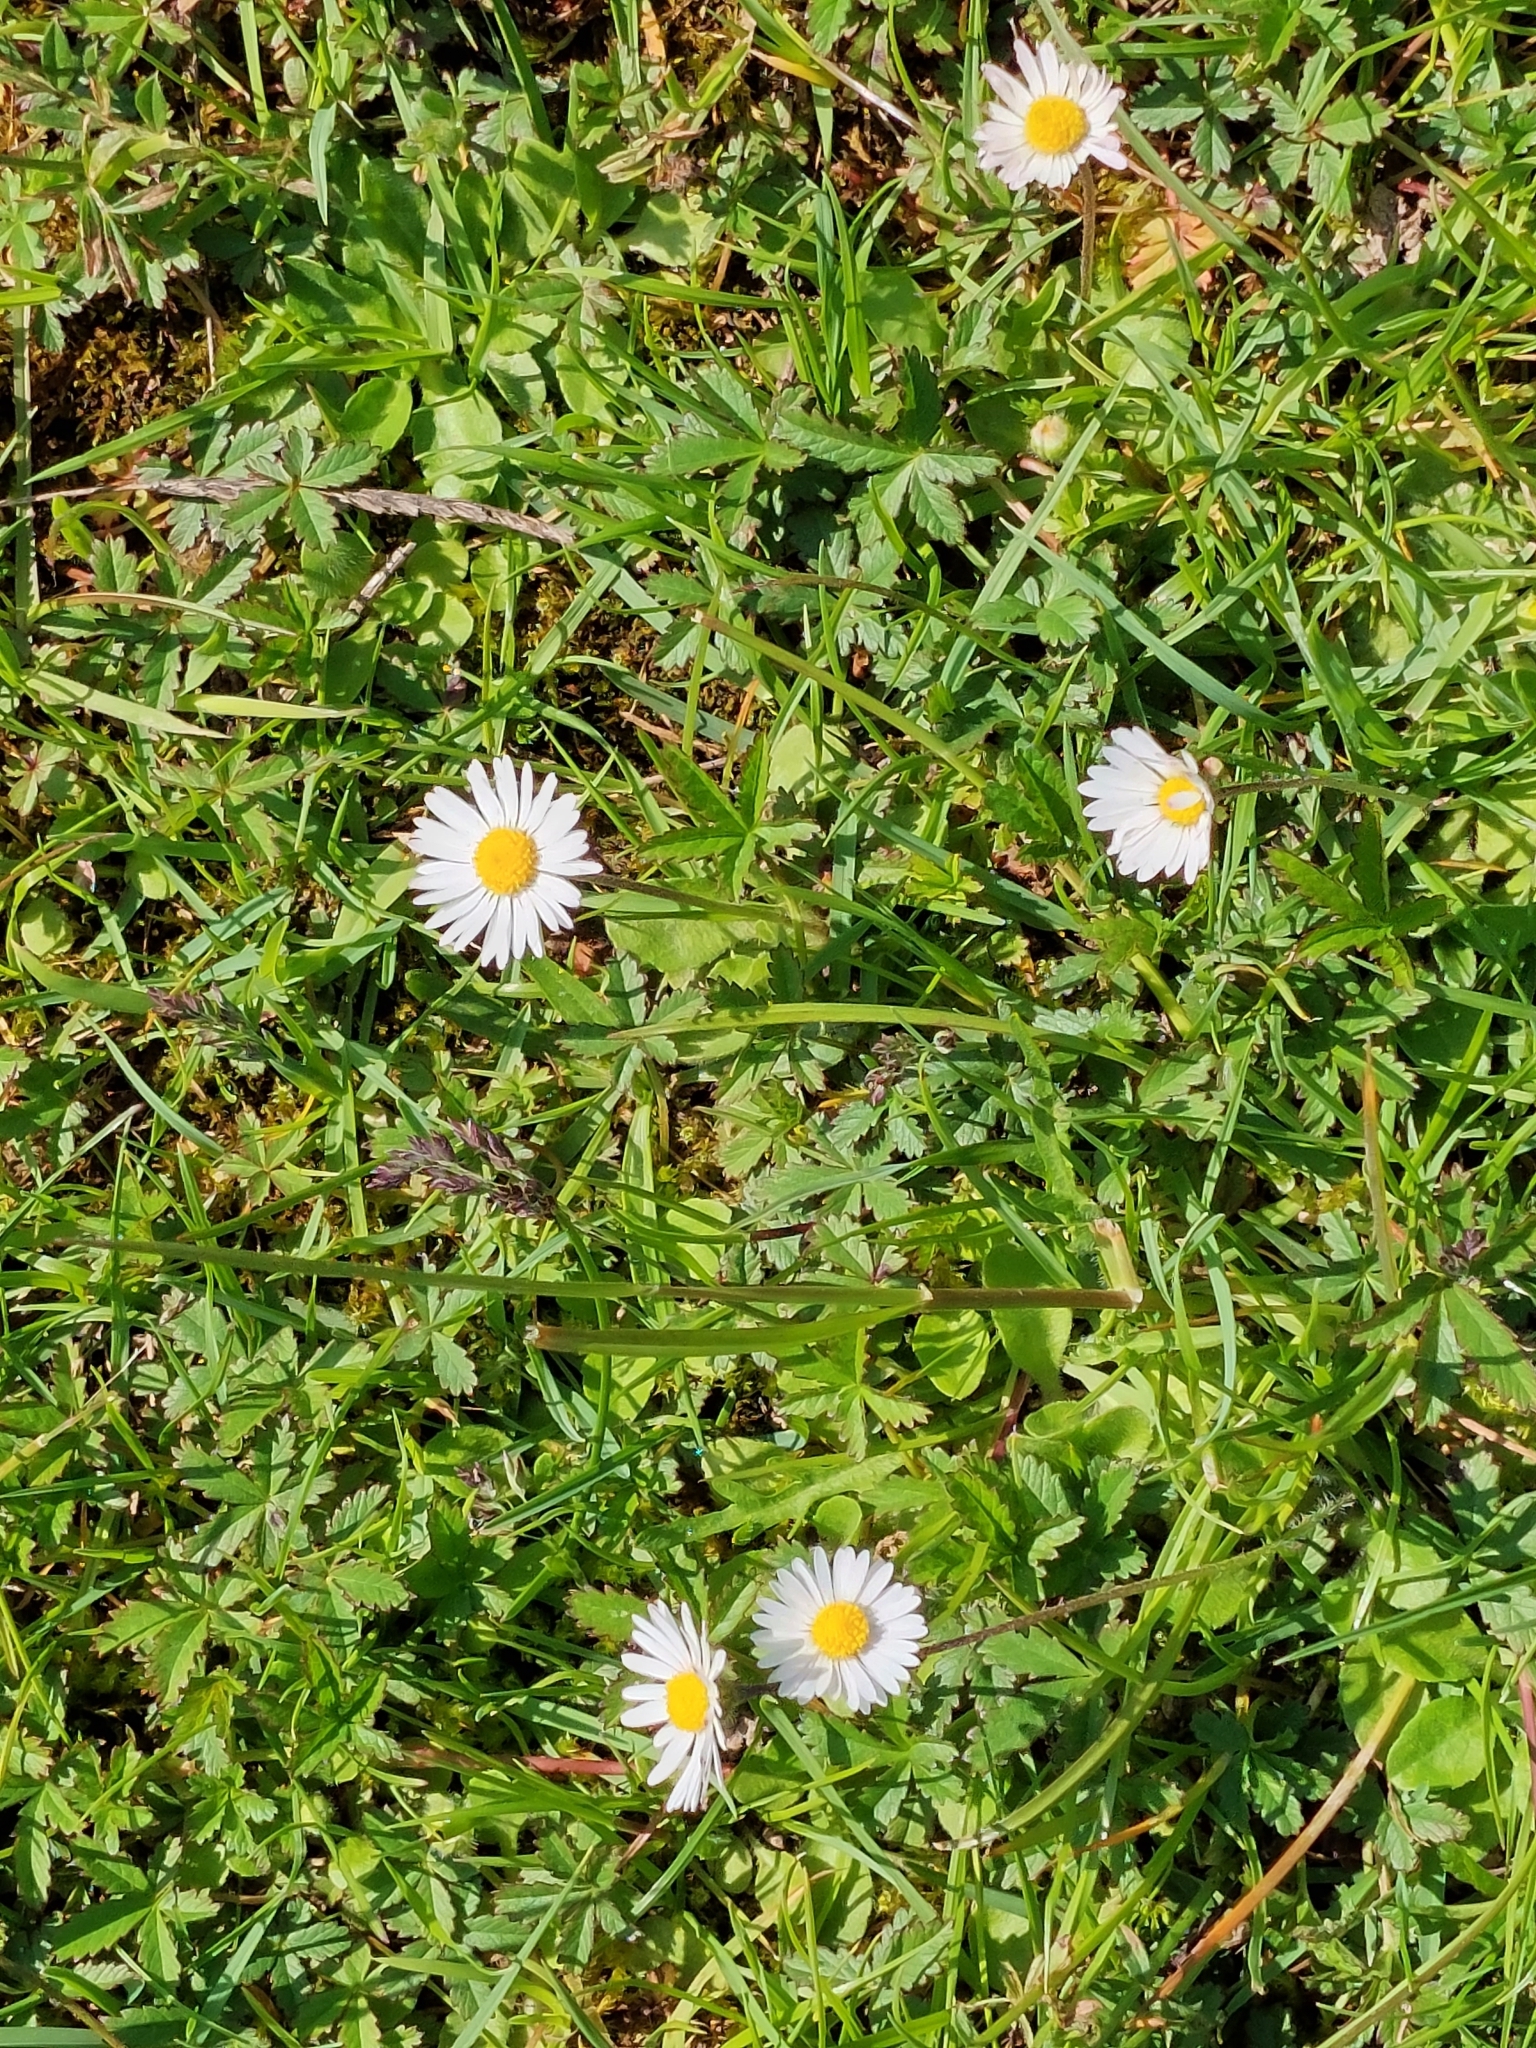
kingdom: Plantae
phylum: Tracheophyta
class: Magnoliopsida
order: Asterales
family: Asteraceae
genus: Bellis
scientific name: Bellis perennis
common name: Lawndaisy
